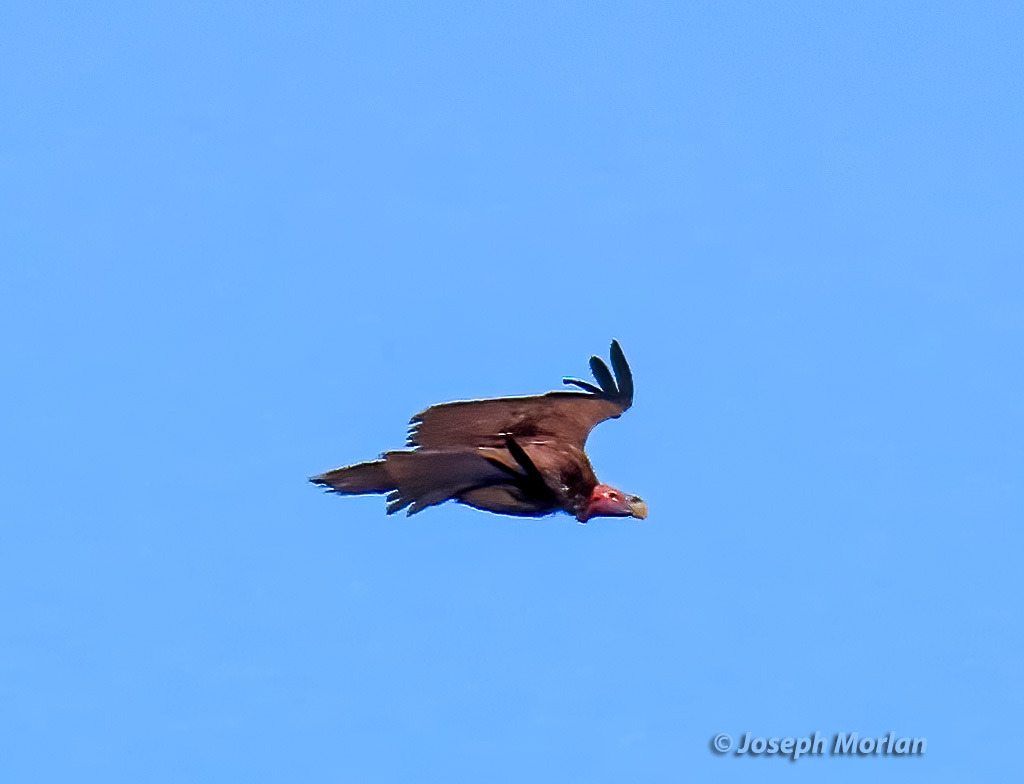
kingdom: Animalia
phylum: Chordata
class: Aves
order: Accipitriformes
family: Accipitridae
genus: Torgos
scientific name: Torgos tracheliotos
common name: Lappet-faced vulture
